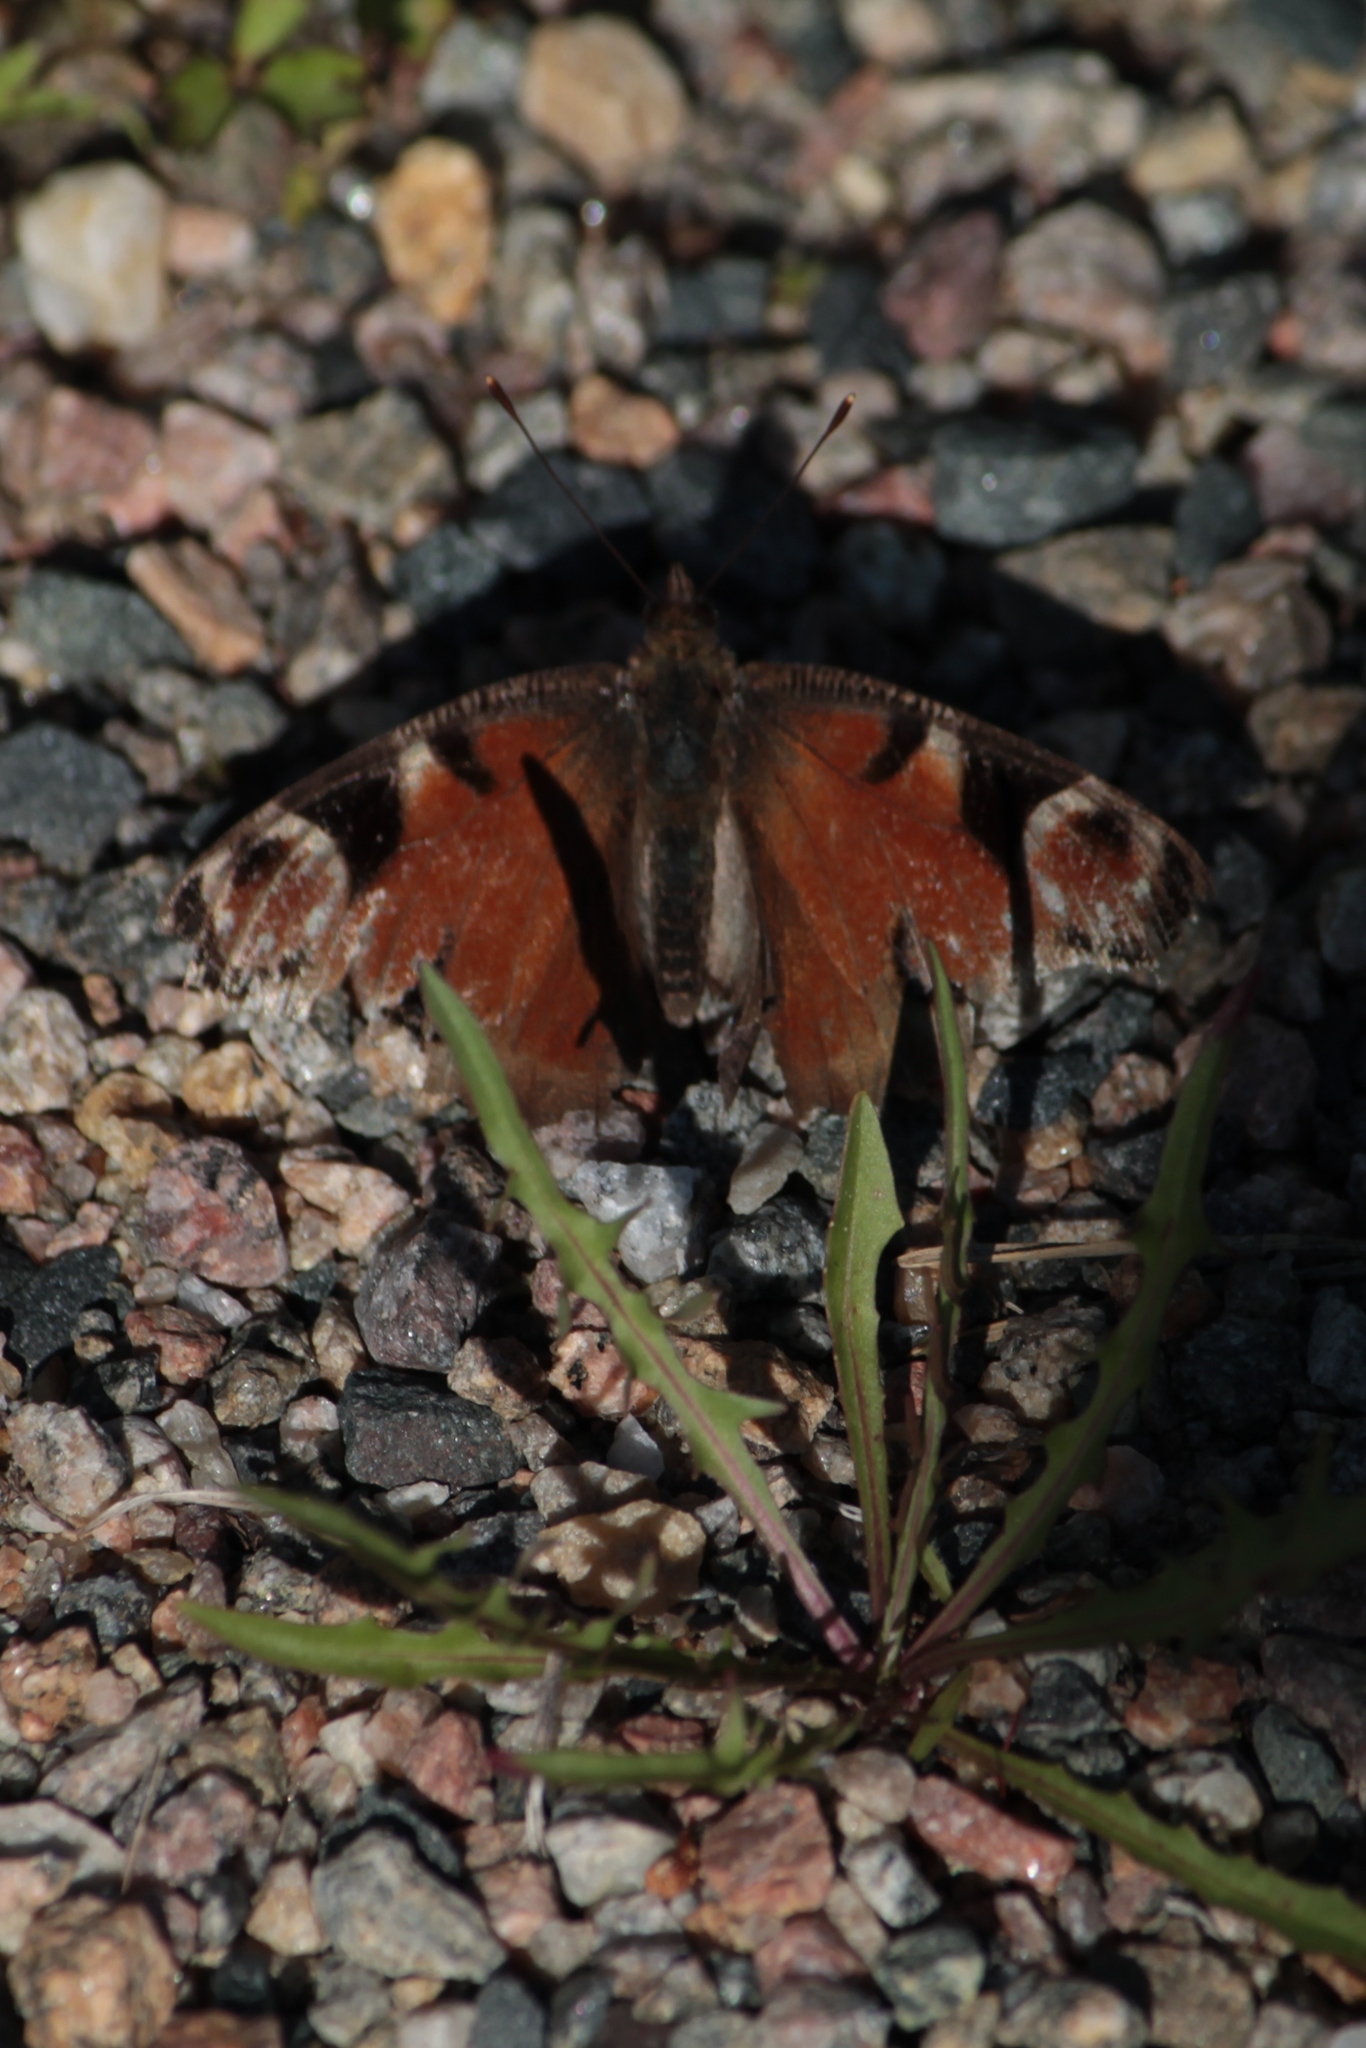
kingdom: Animalia
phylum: Arthropoda
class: Insecta
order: Lepidoptera
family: Nymphalidae
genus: Aglais
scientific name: Aglais io
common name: Peacock
